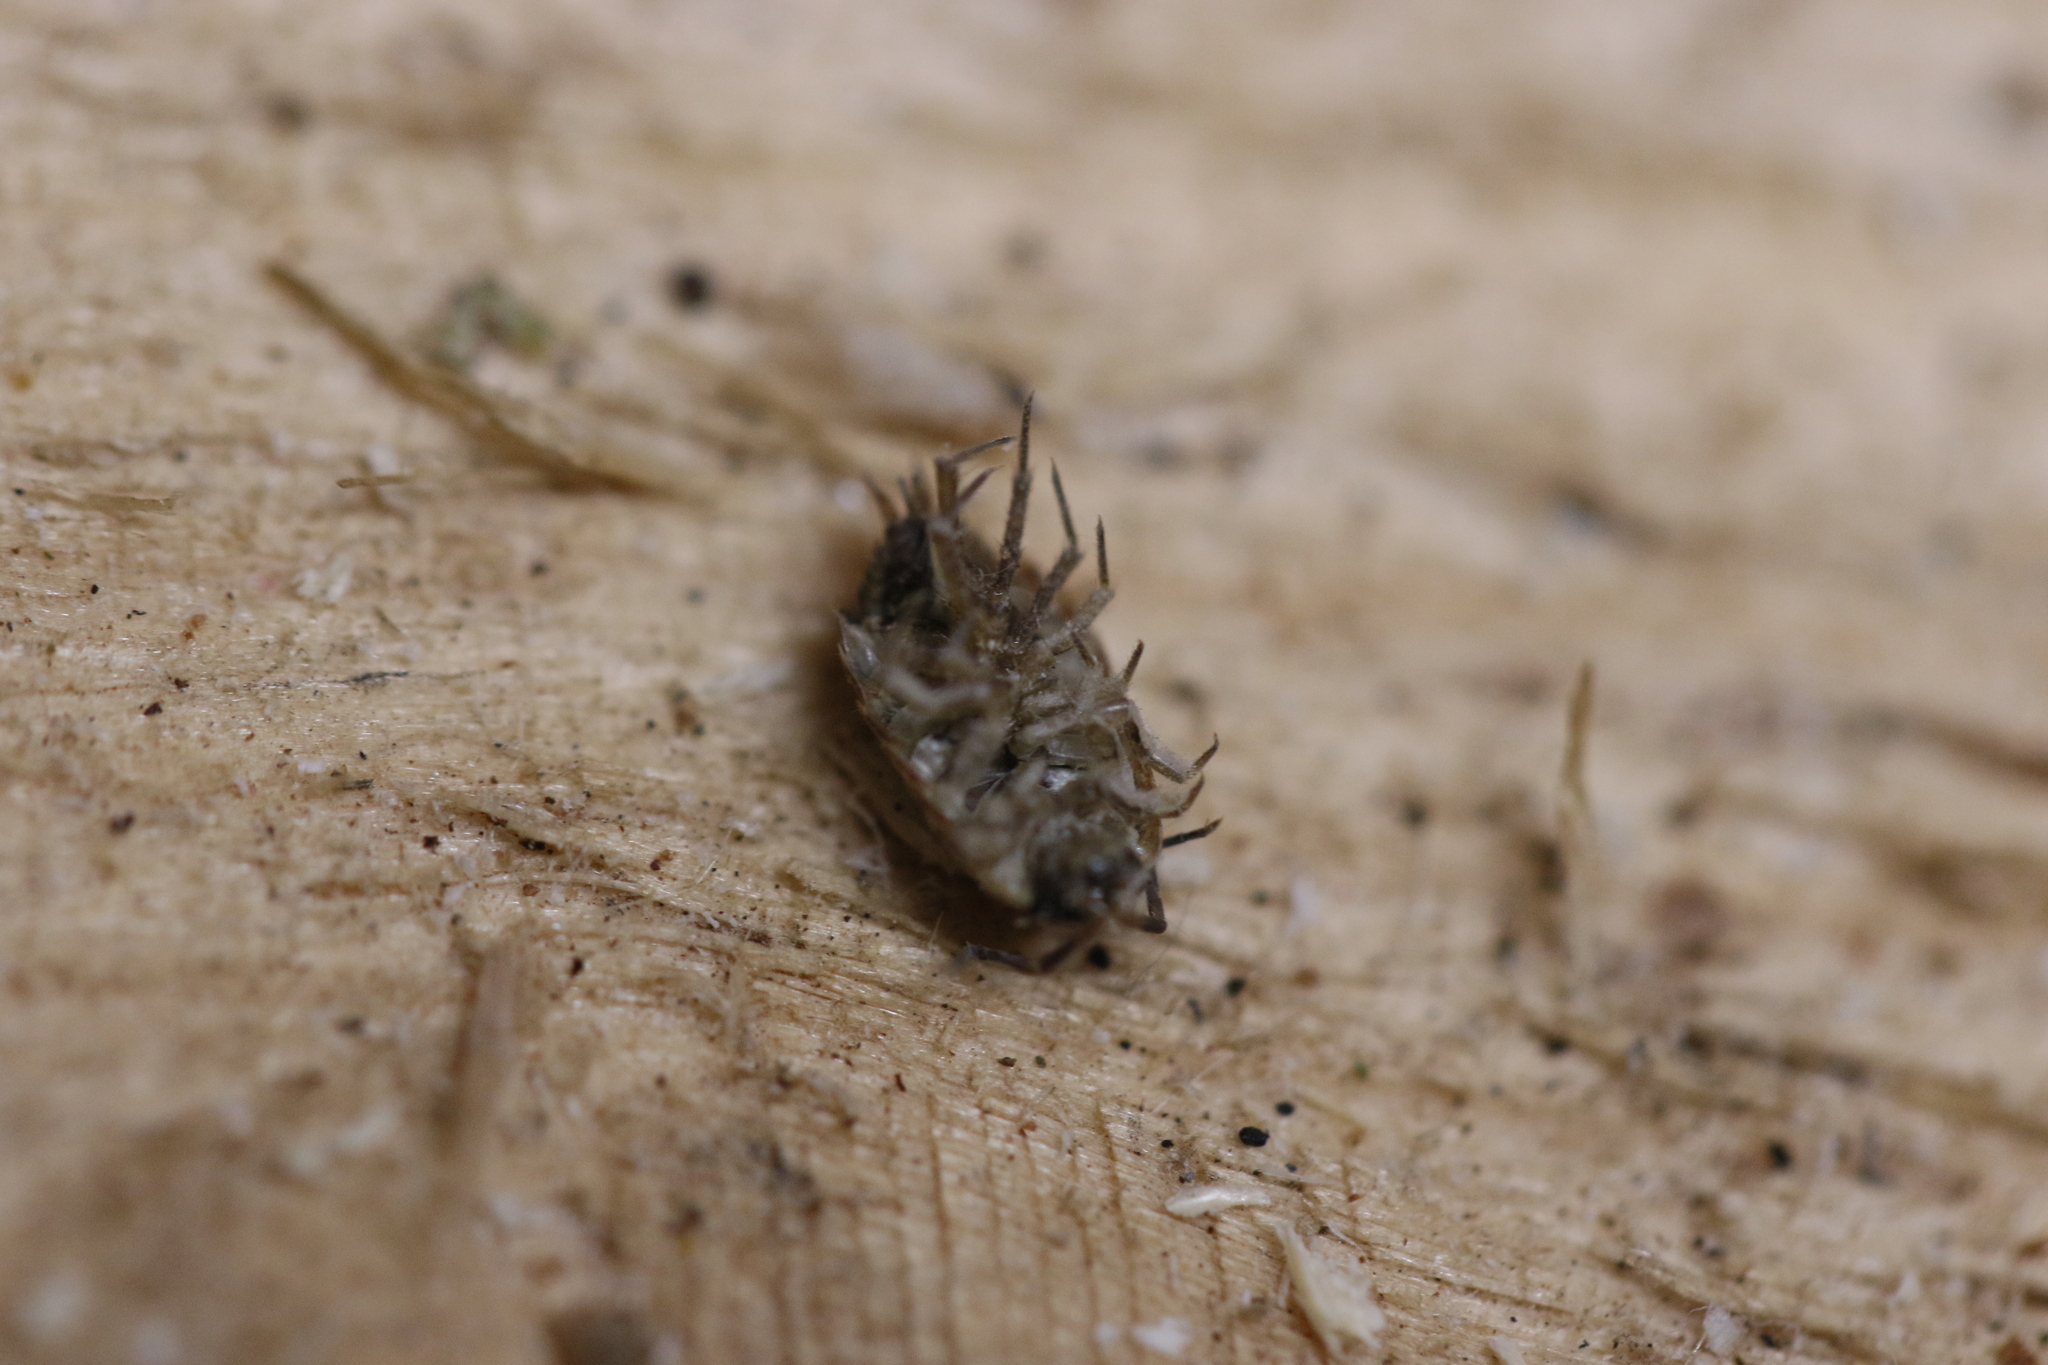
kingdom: Animalia
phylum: Arthropoda
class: Malacostraca
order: Isopoda
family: Philosciidae
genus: Philoscia
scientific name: Philoscia muscorum
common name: Common striped woodlouse
